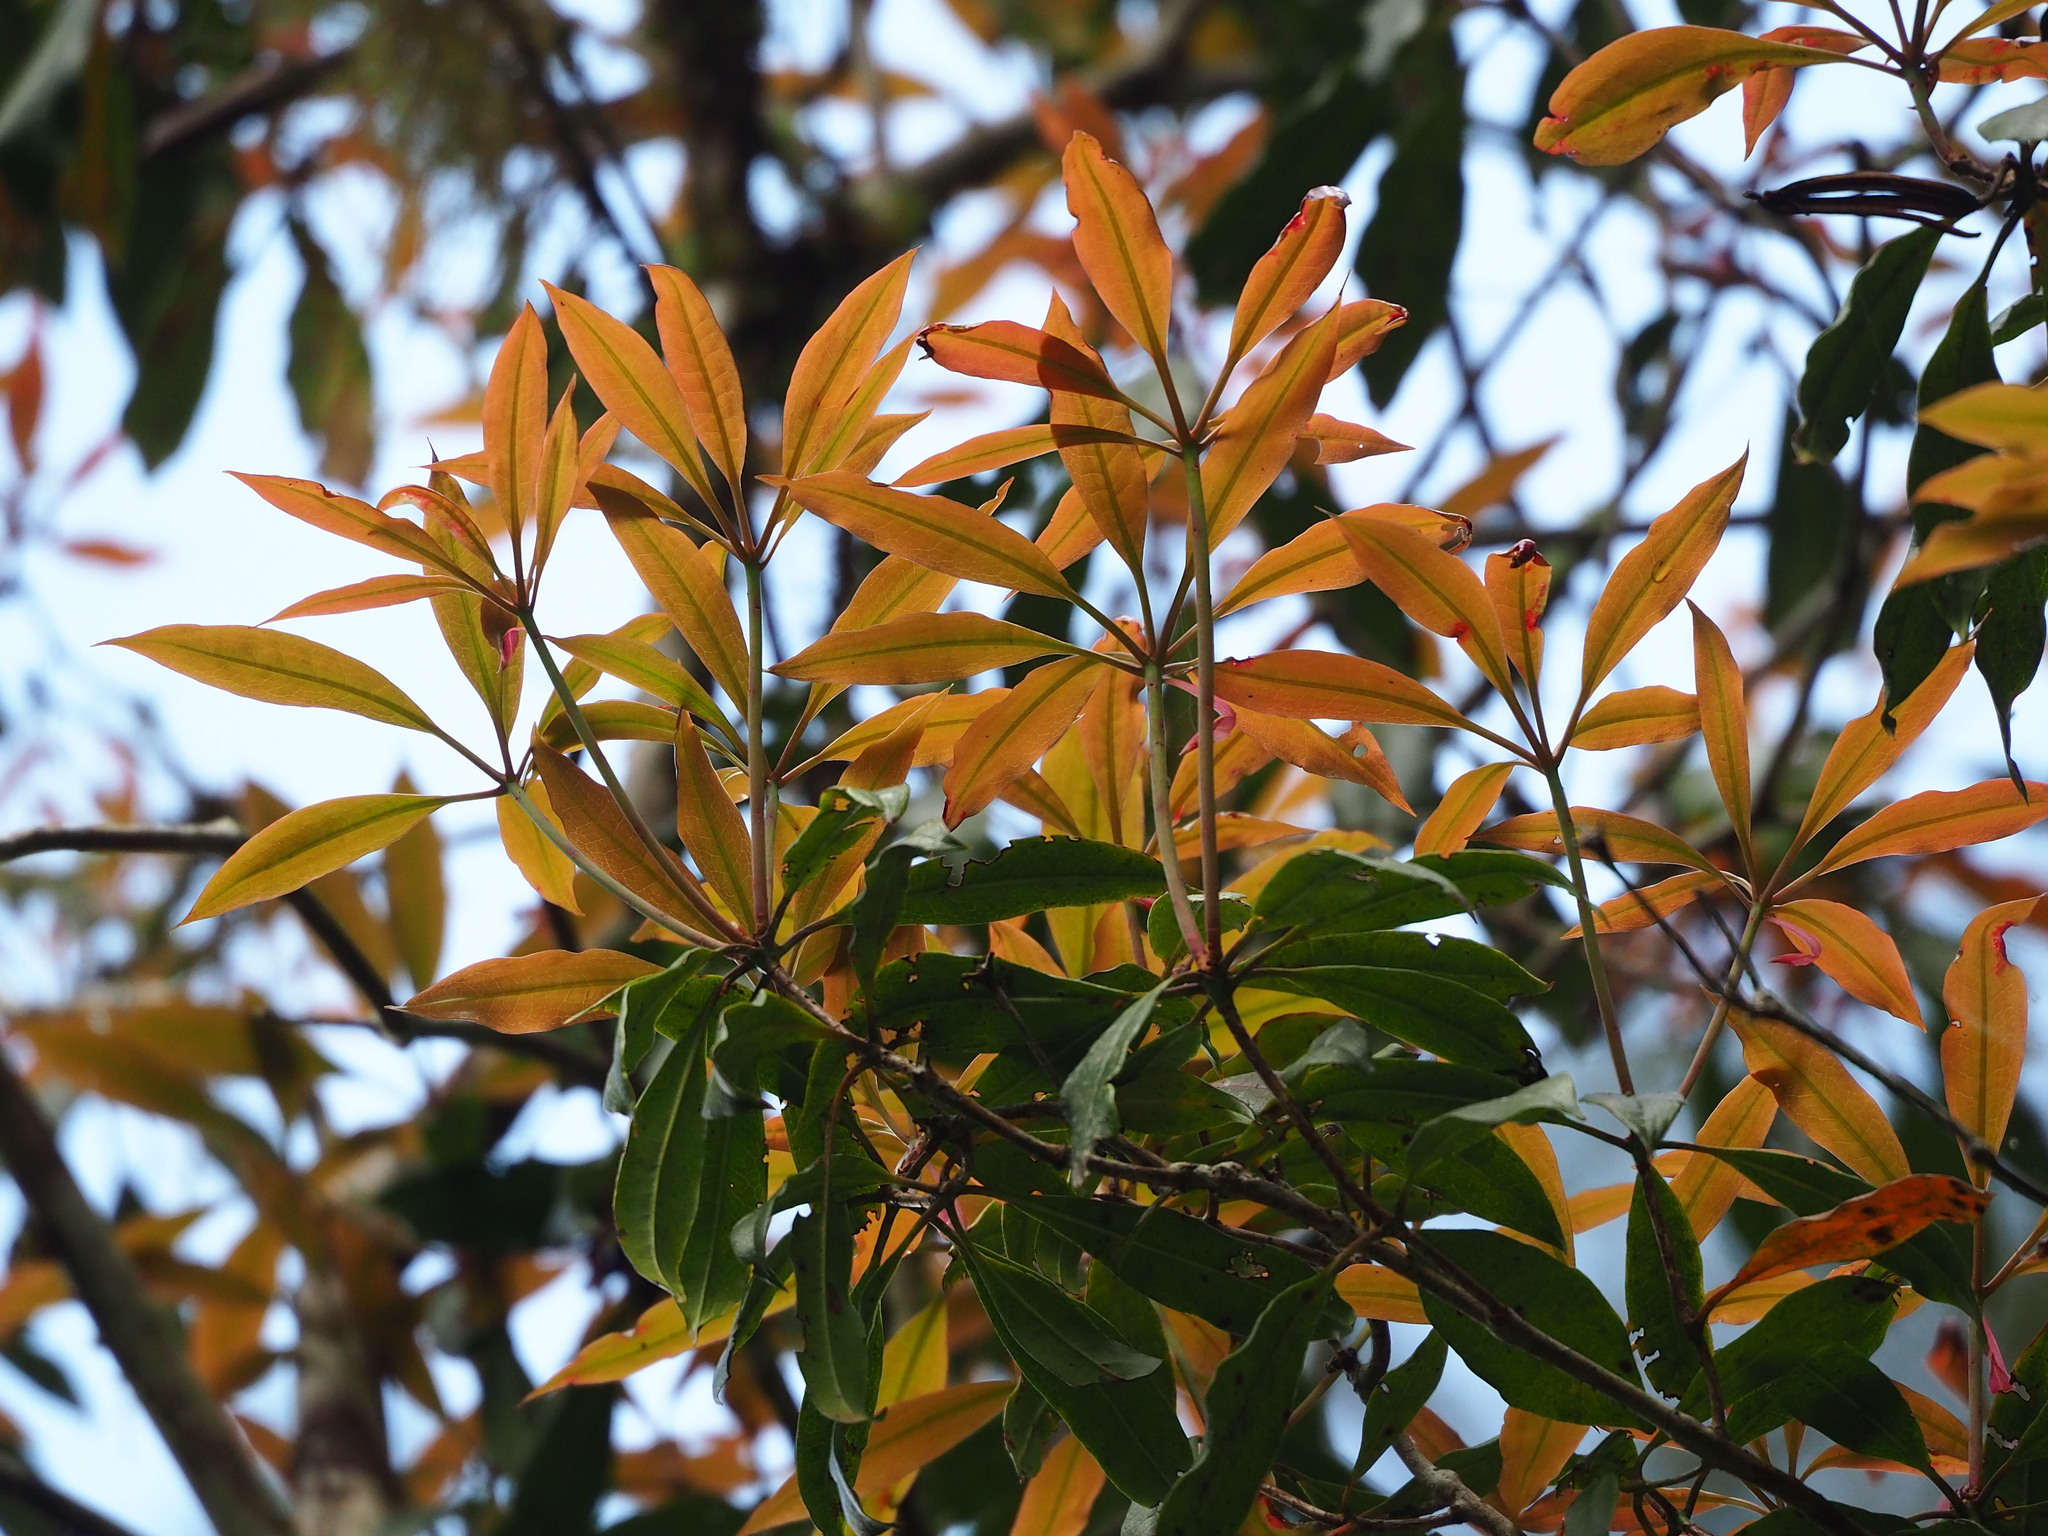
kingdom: Plantae
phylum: Tracheophyta
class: Magnoliopsida
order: Ericales
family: Ericaceae
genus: Rhododendron
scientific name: Rhododendron latoucheae
